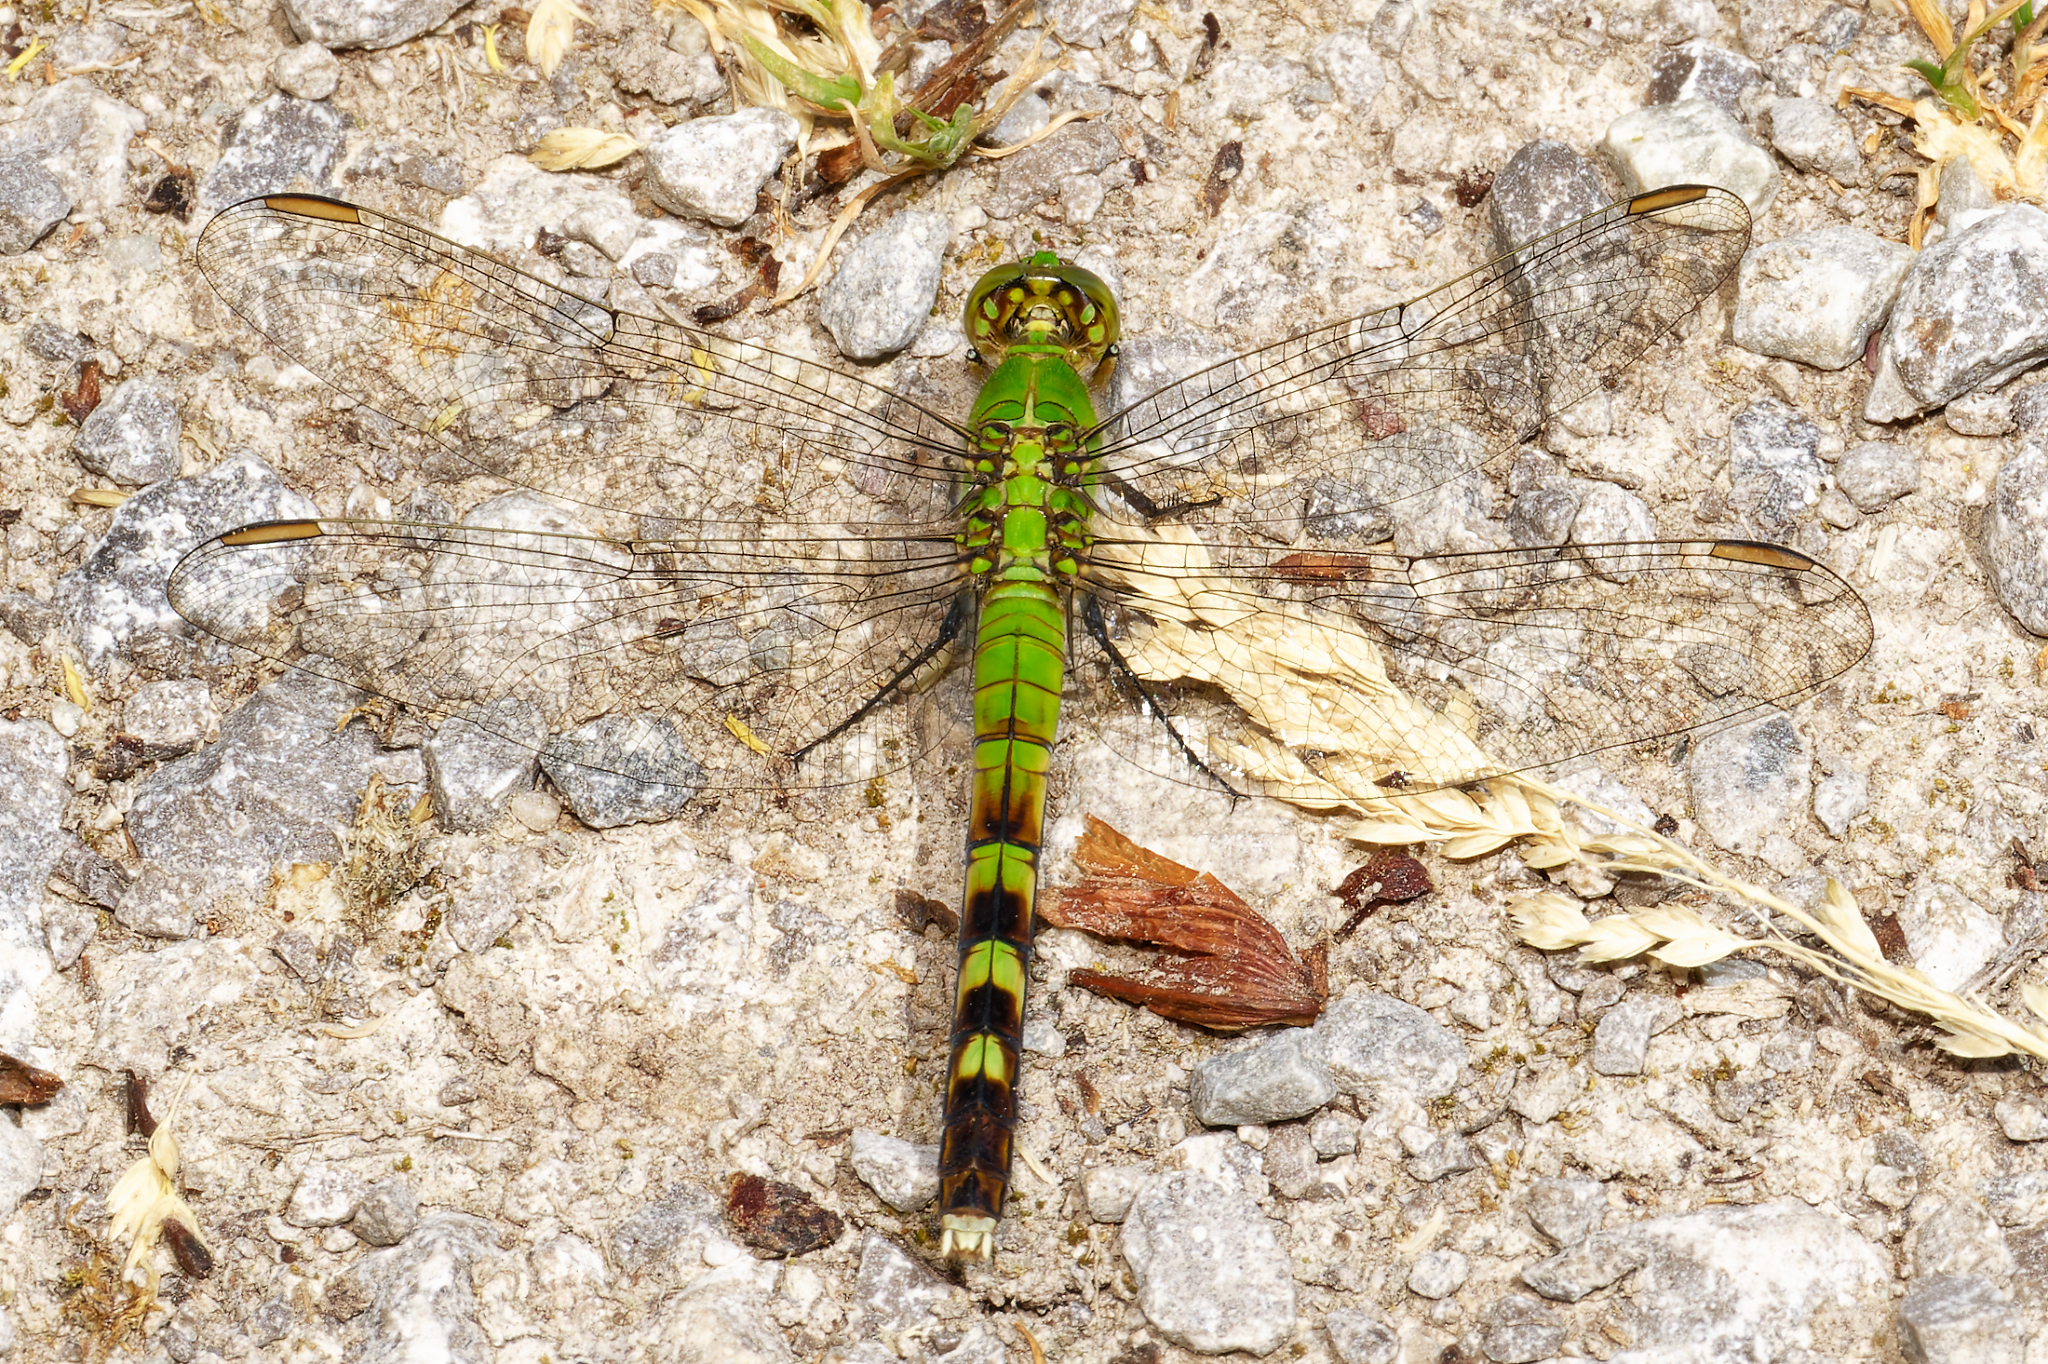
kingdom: Animalia
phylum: Arthropoda
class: Insecta
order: Odonata
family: Libellulidae
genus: Erythemis
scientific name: Erythemis simplicicollis
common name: Eastern pondhawk
